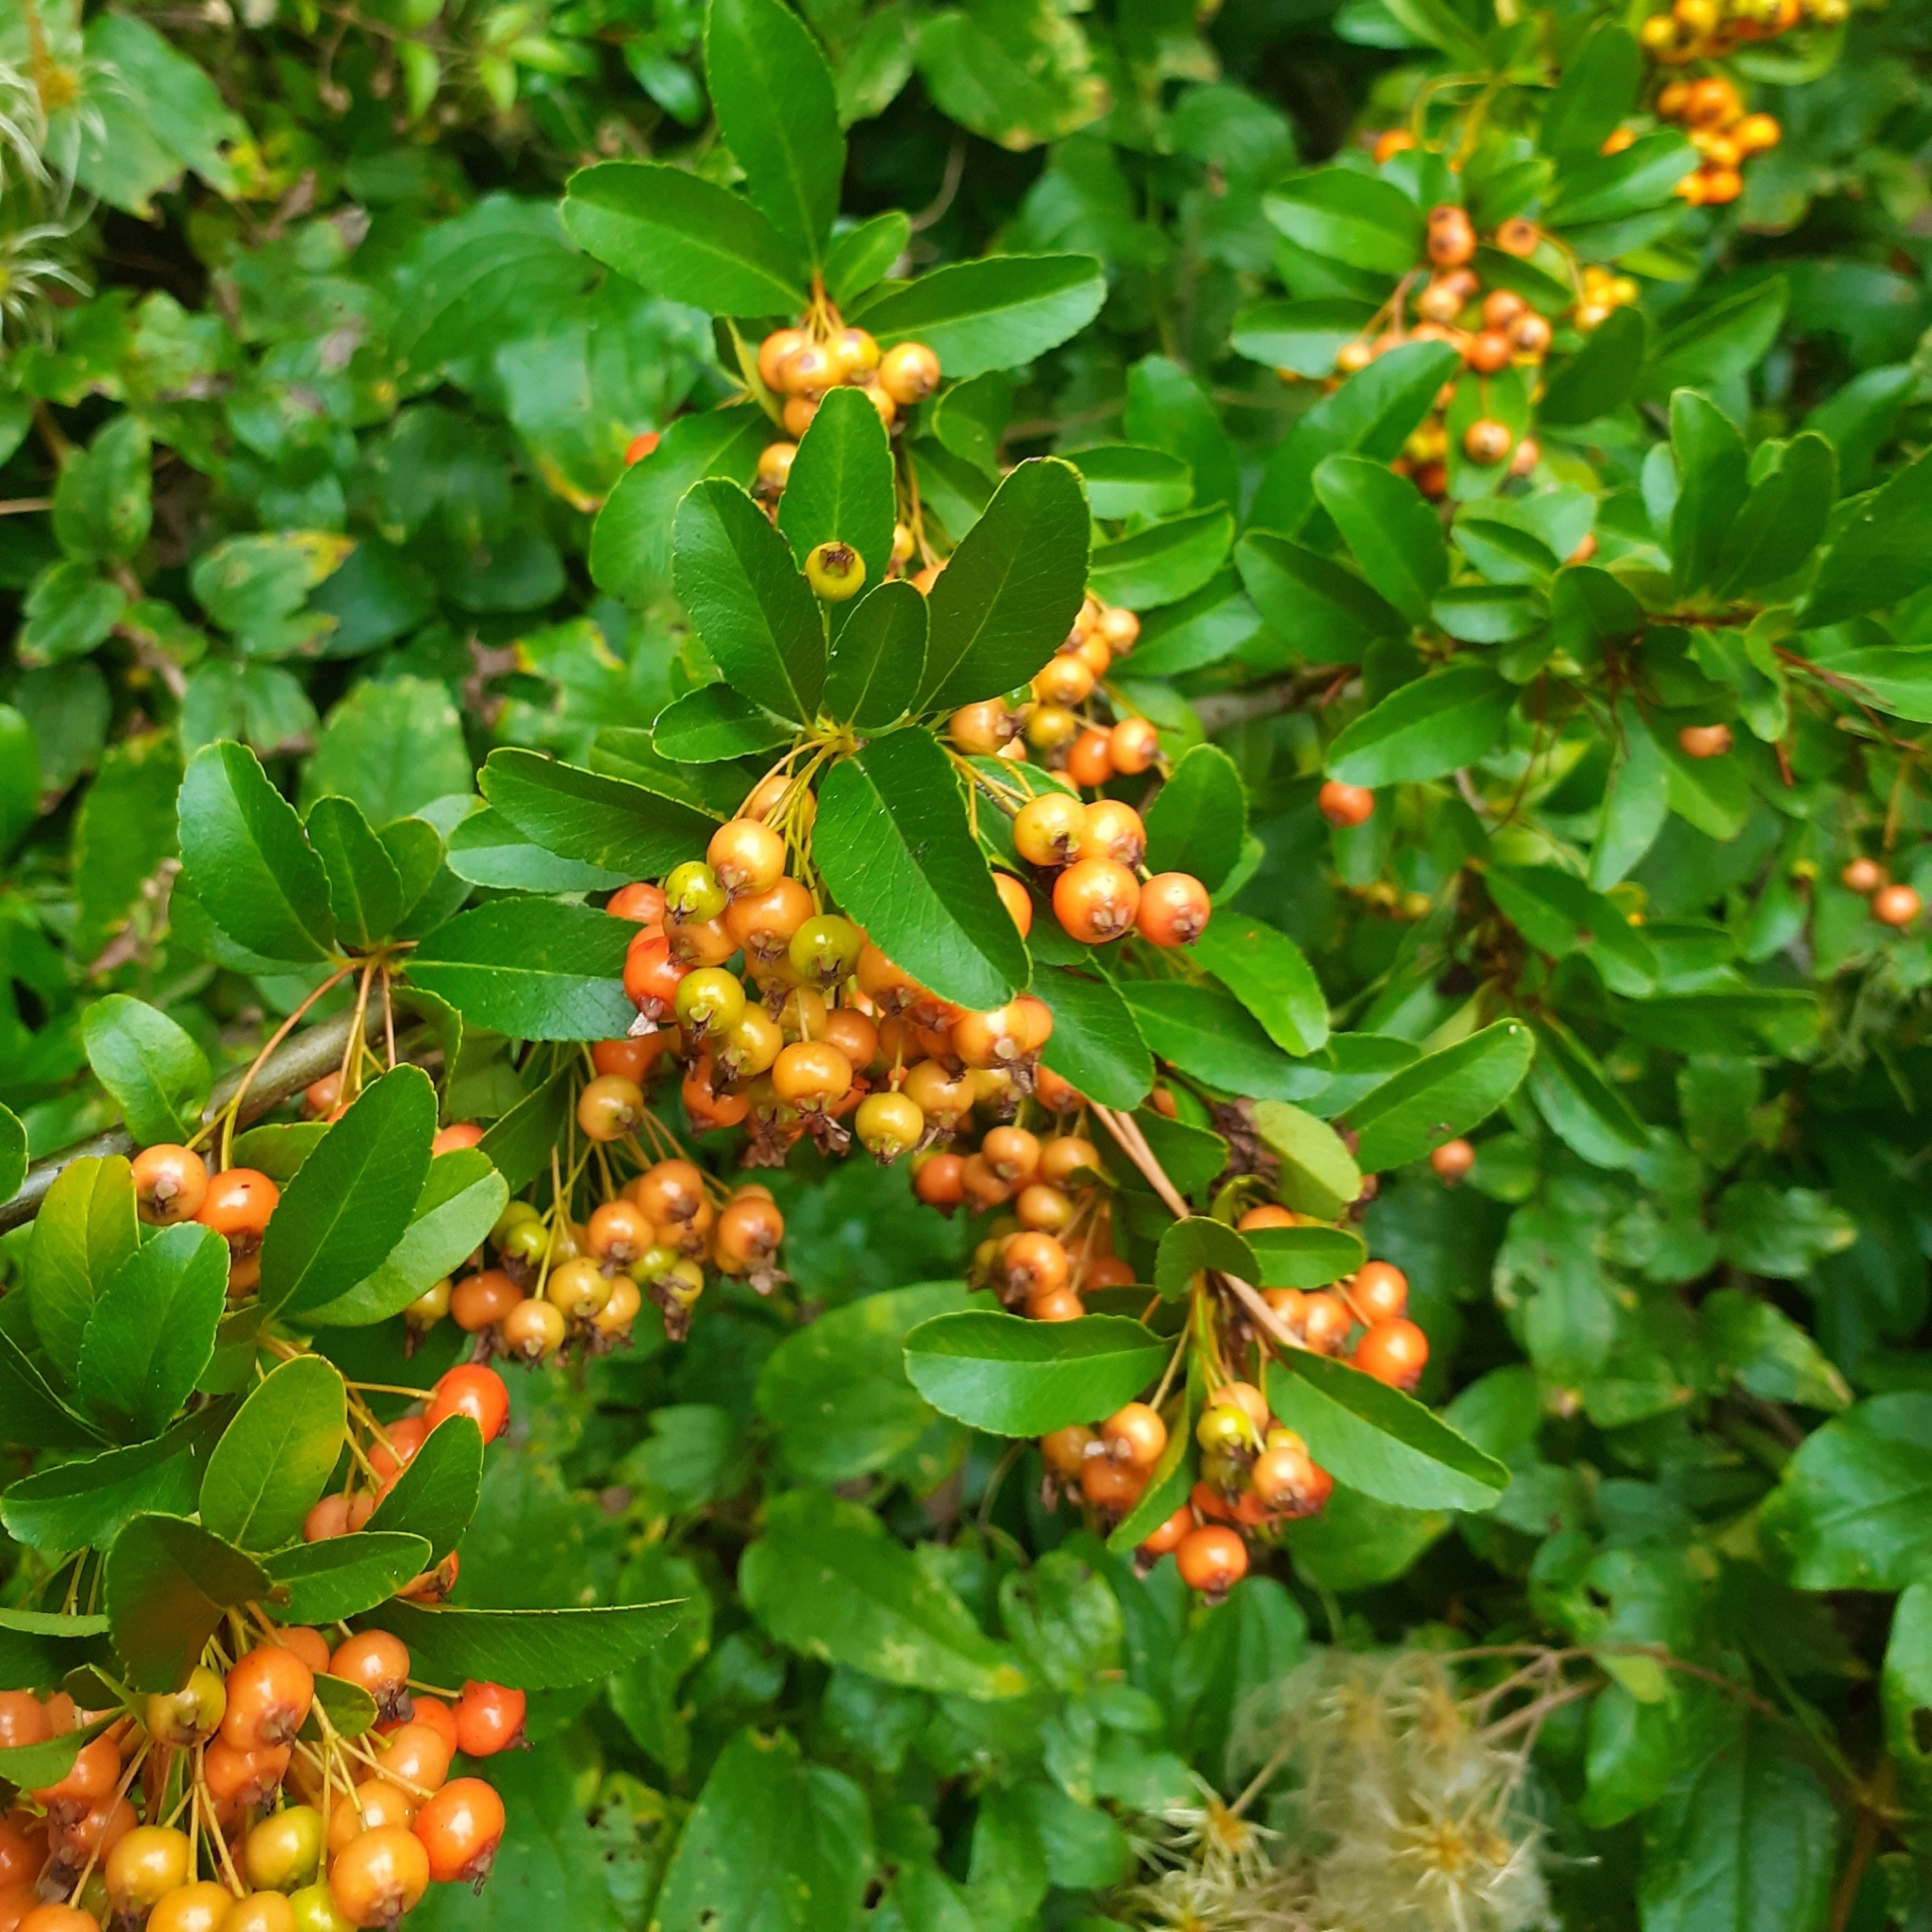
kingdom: Plantae
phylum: Tracheophyta
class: Magnoliopsida
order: Rosales
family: Rosaceae
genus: Pyracantha
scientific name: Pyracantha coccinea
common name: Firethorn
